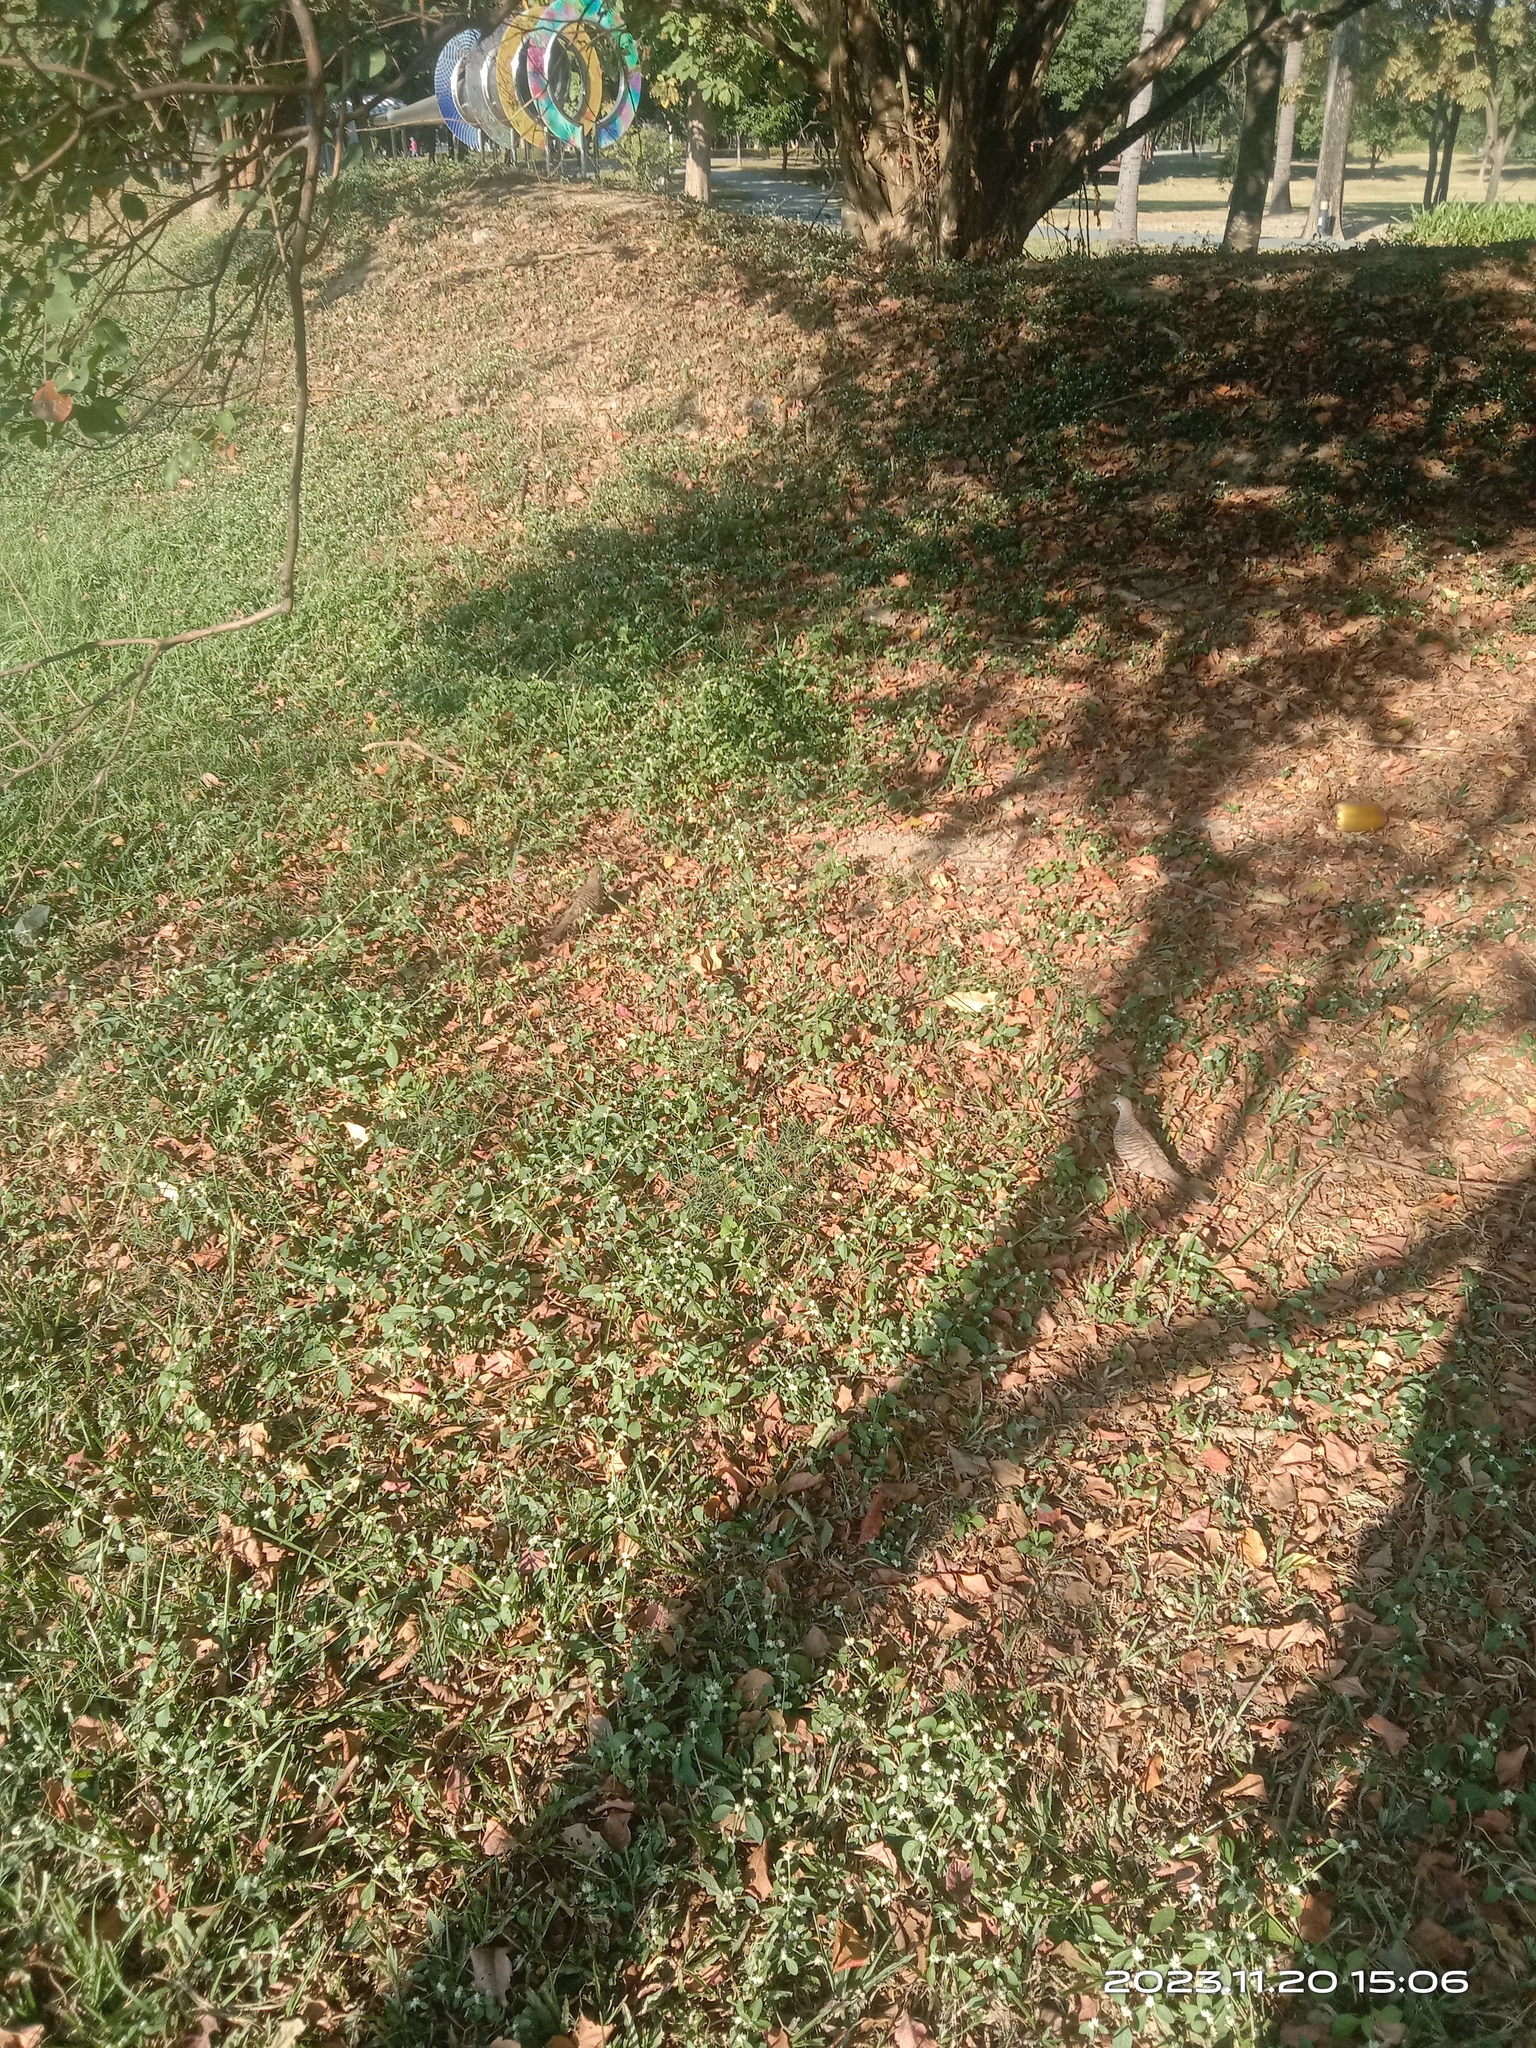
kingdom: Animalia
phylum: Chordata
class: Aves
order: Columbiformes
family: Columbidae
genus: Geopelia
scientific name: Geopelia striata
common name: Zebra dove
